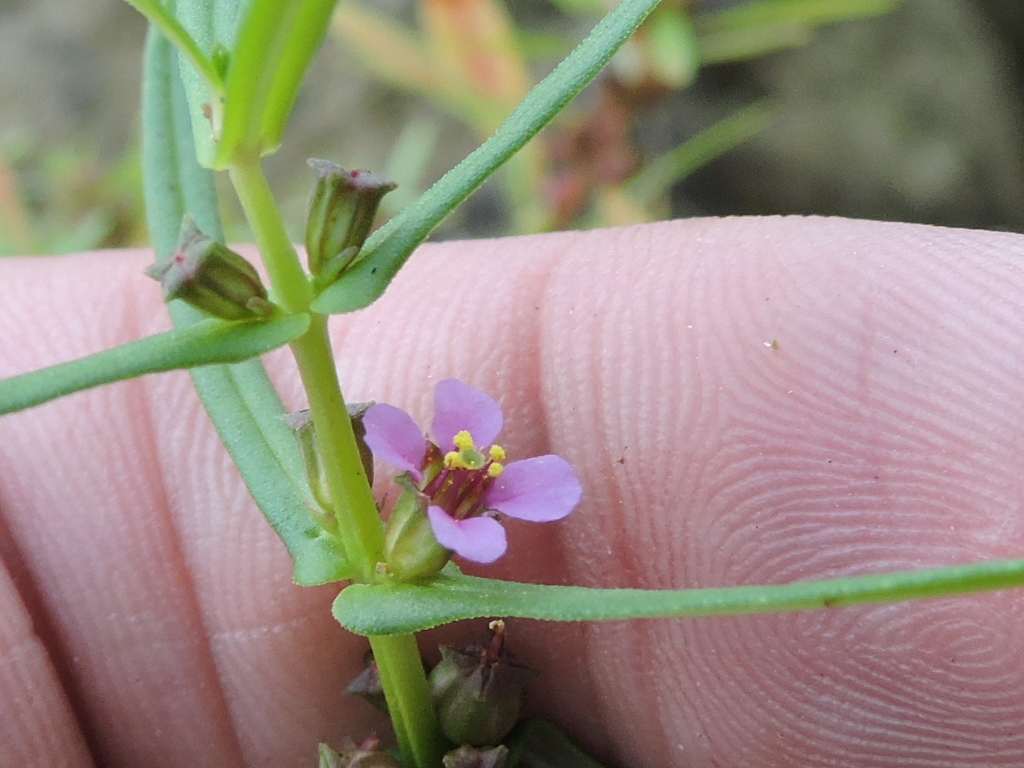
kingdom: Plantae
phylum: Tracheophyta
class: Magnoliopsida
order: Myrtales
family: Lythraceae
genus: Ammannia
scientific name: Ammannia coccinea
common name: Valley redstem
